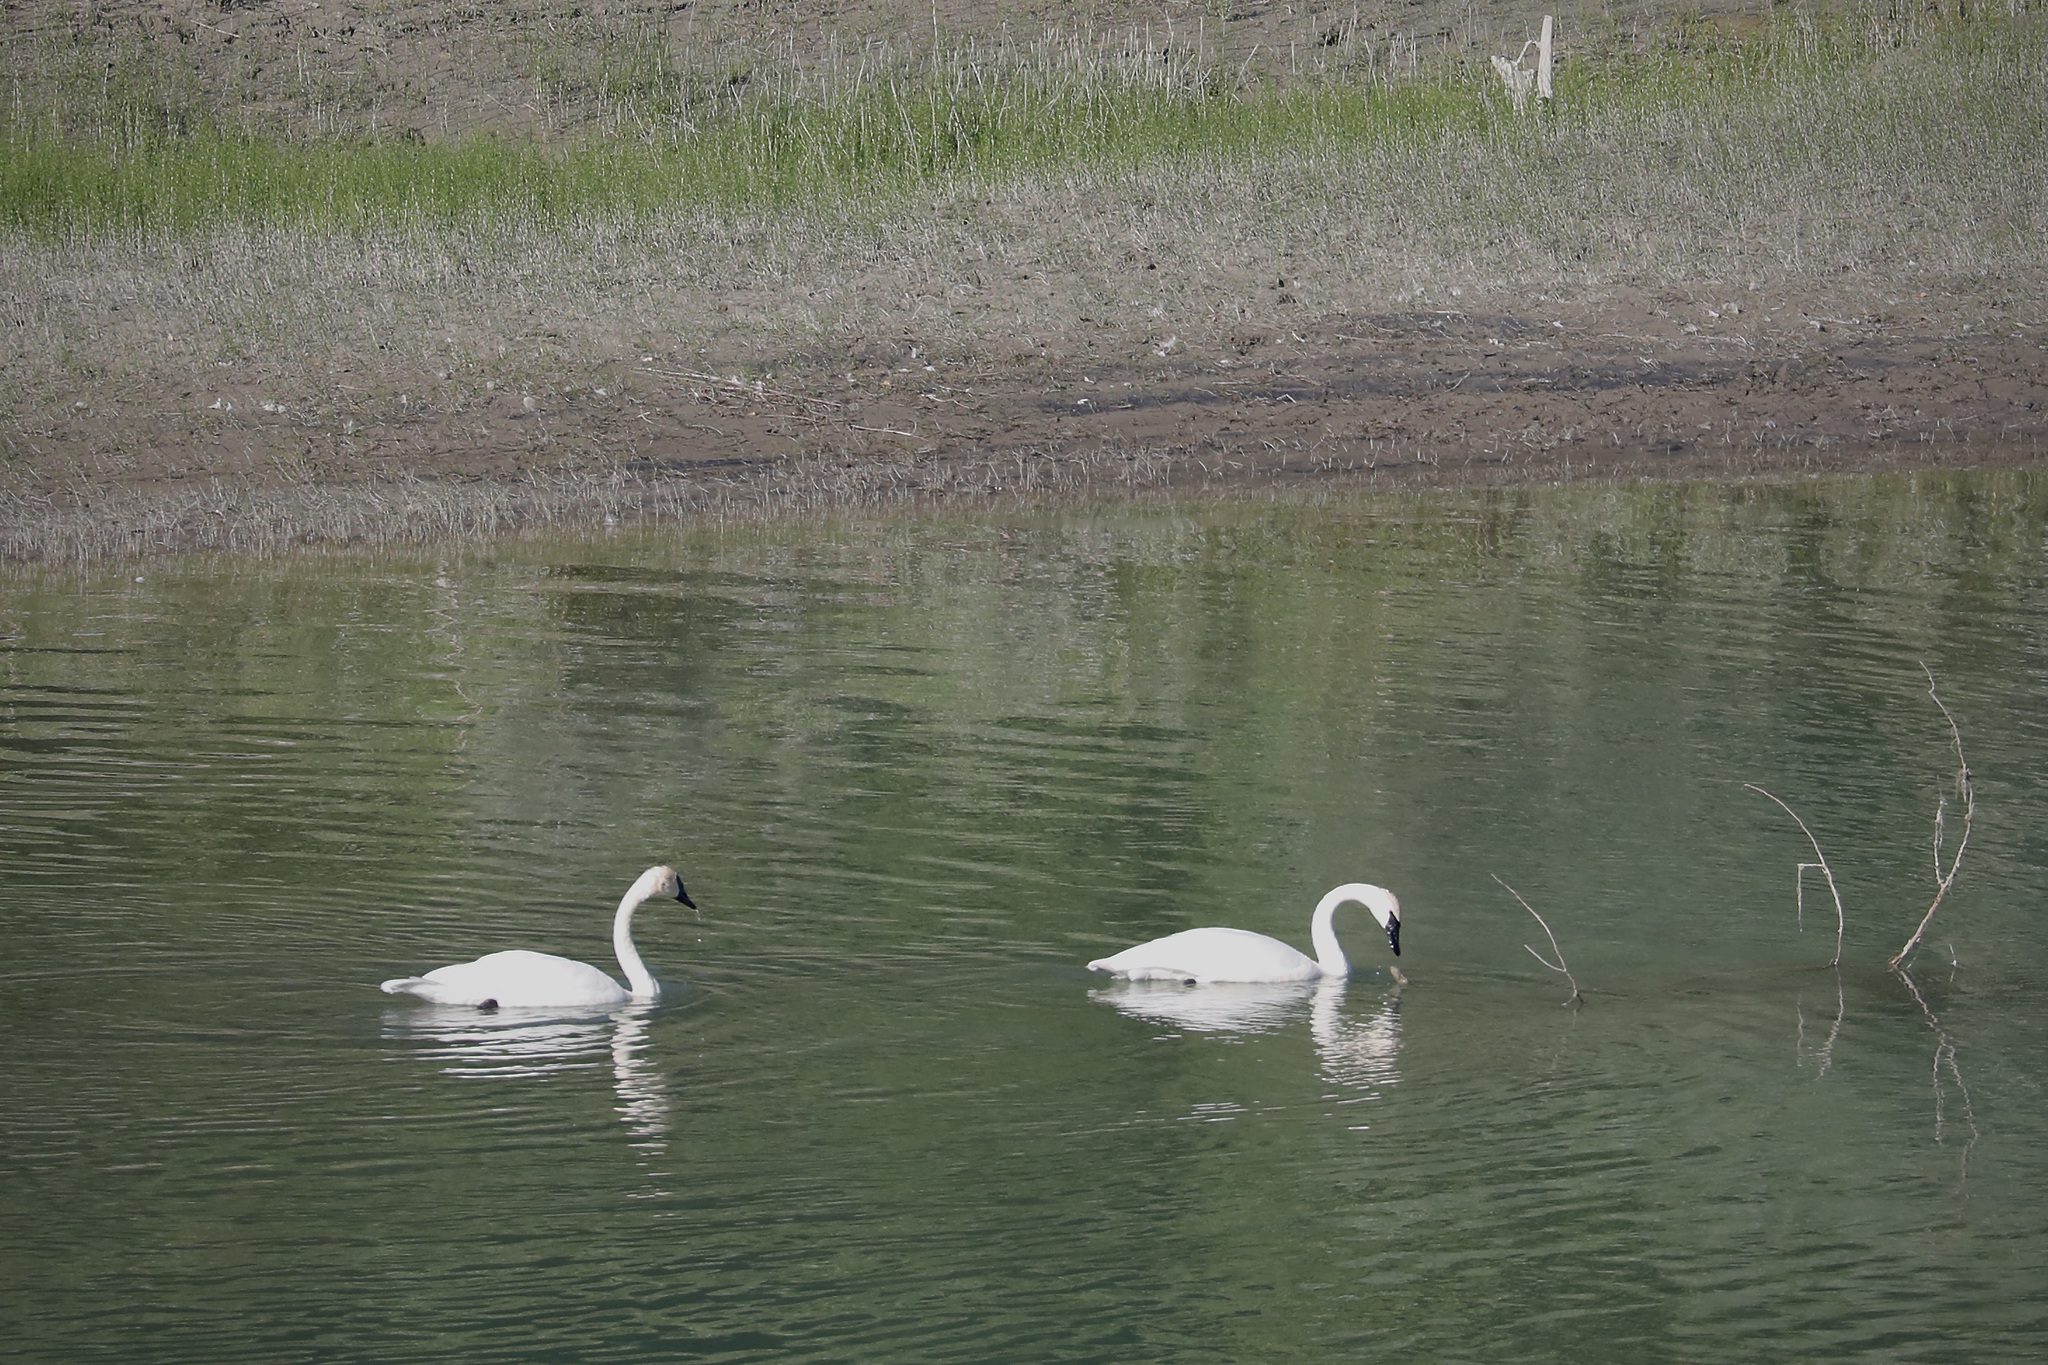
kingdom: Animalia
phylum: Chordata
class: Aves
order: Anseriformes
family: Anatidae
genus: Cygnus
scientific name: Cygnus buccinator
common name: Trumpeter swan
